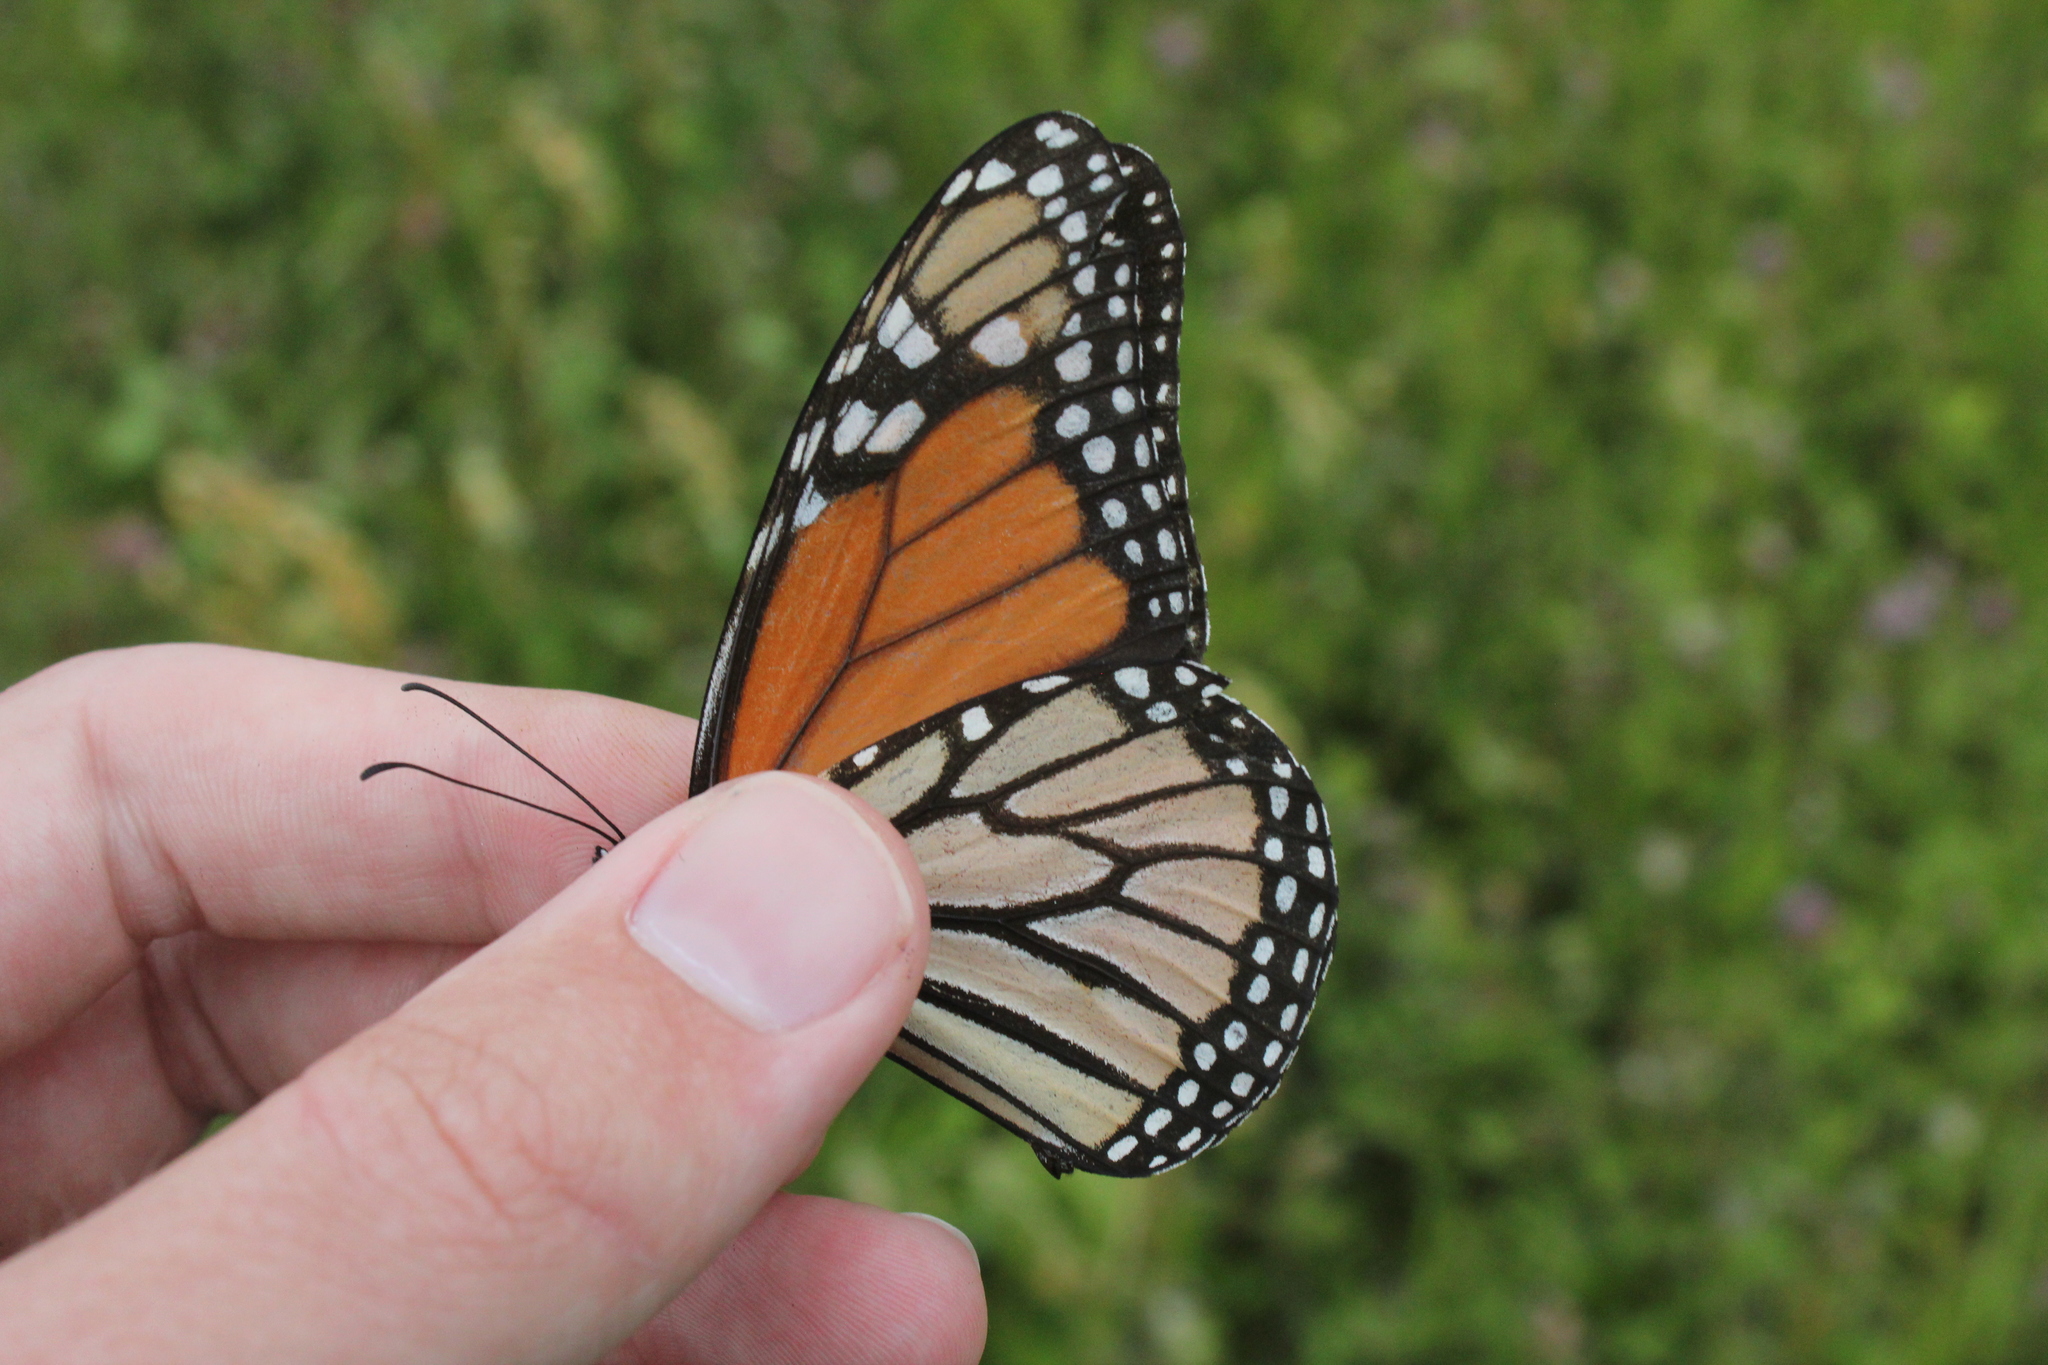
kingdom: Animalia
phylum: Arthropoda
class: Insecta
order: Lepidoptera
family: Nymphalidae
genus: Danaus
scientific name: Danaus plexippus
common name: Monarch
